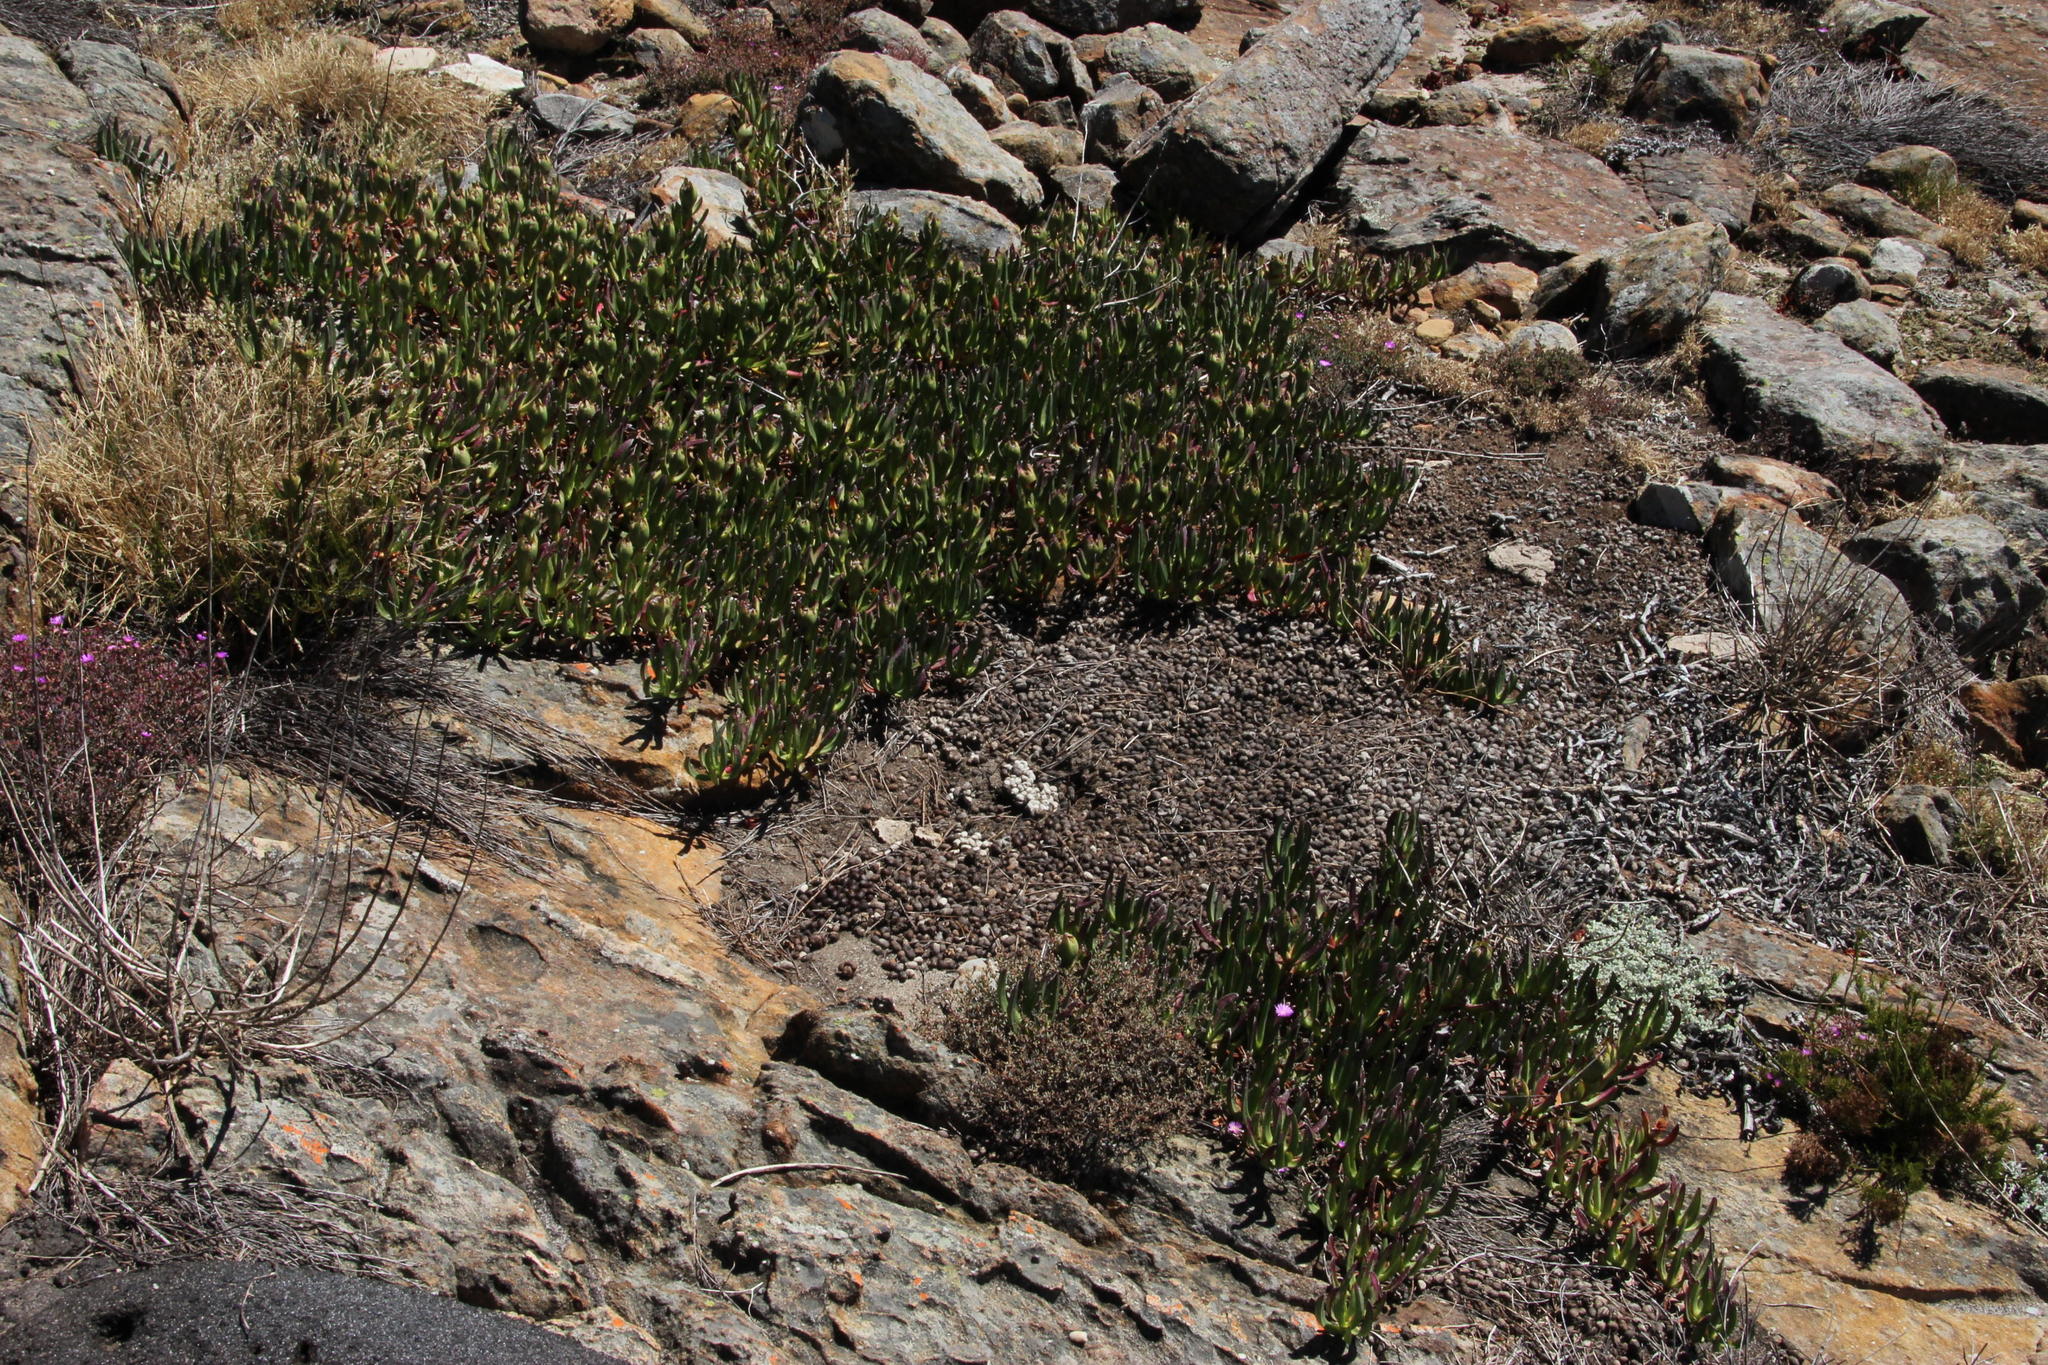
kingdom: Plantae
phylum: Tracheophyta
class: Magnoliopsida
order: Caryophyllales
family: Aizoaceae
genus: Carpobrotus
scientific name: Carpobrotus edulis
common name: Hottentot-fig
